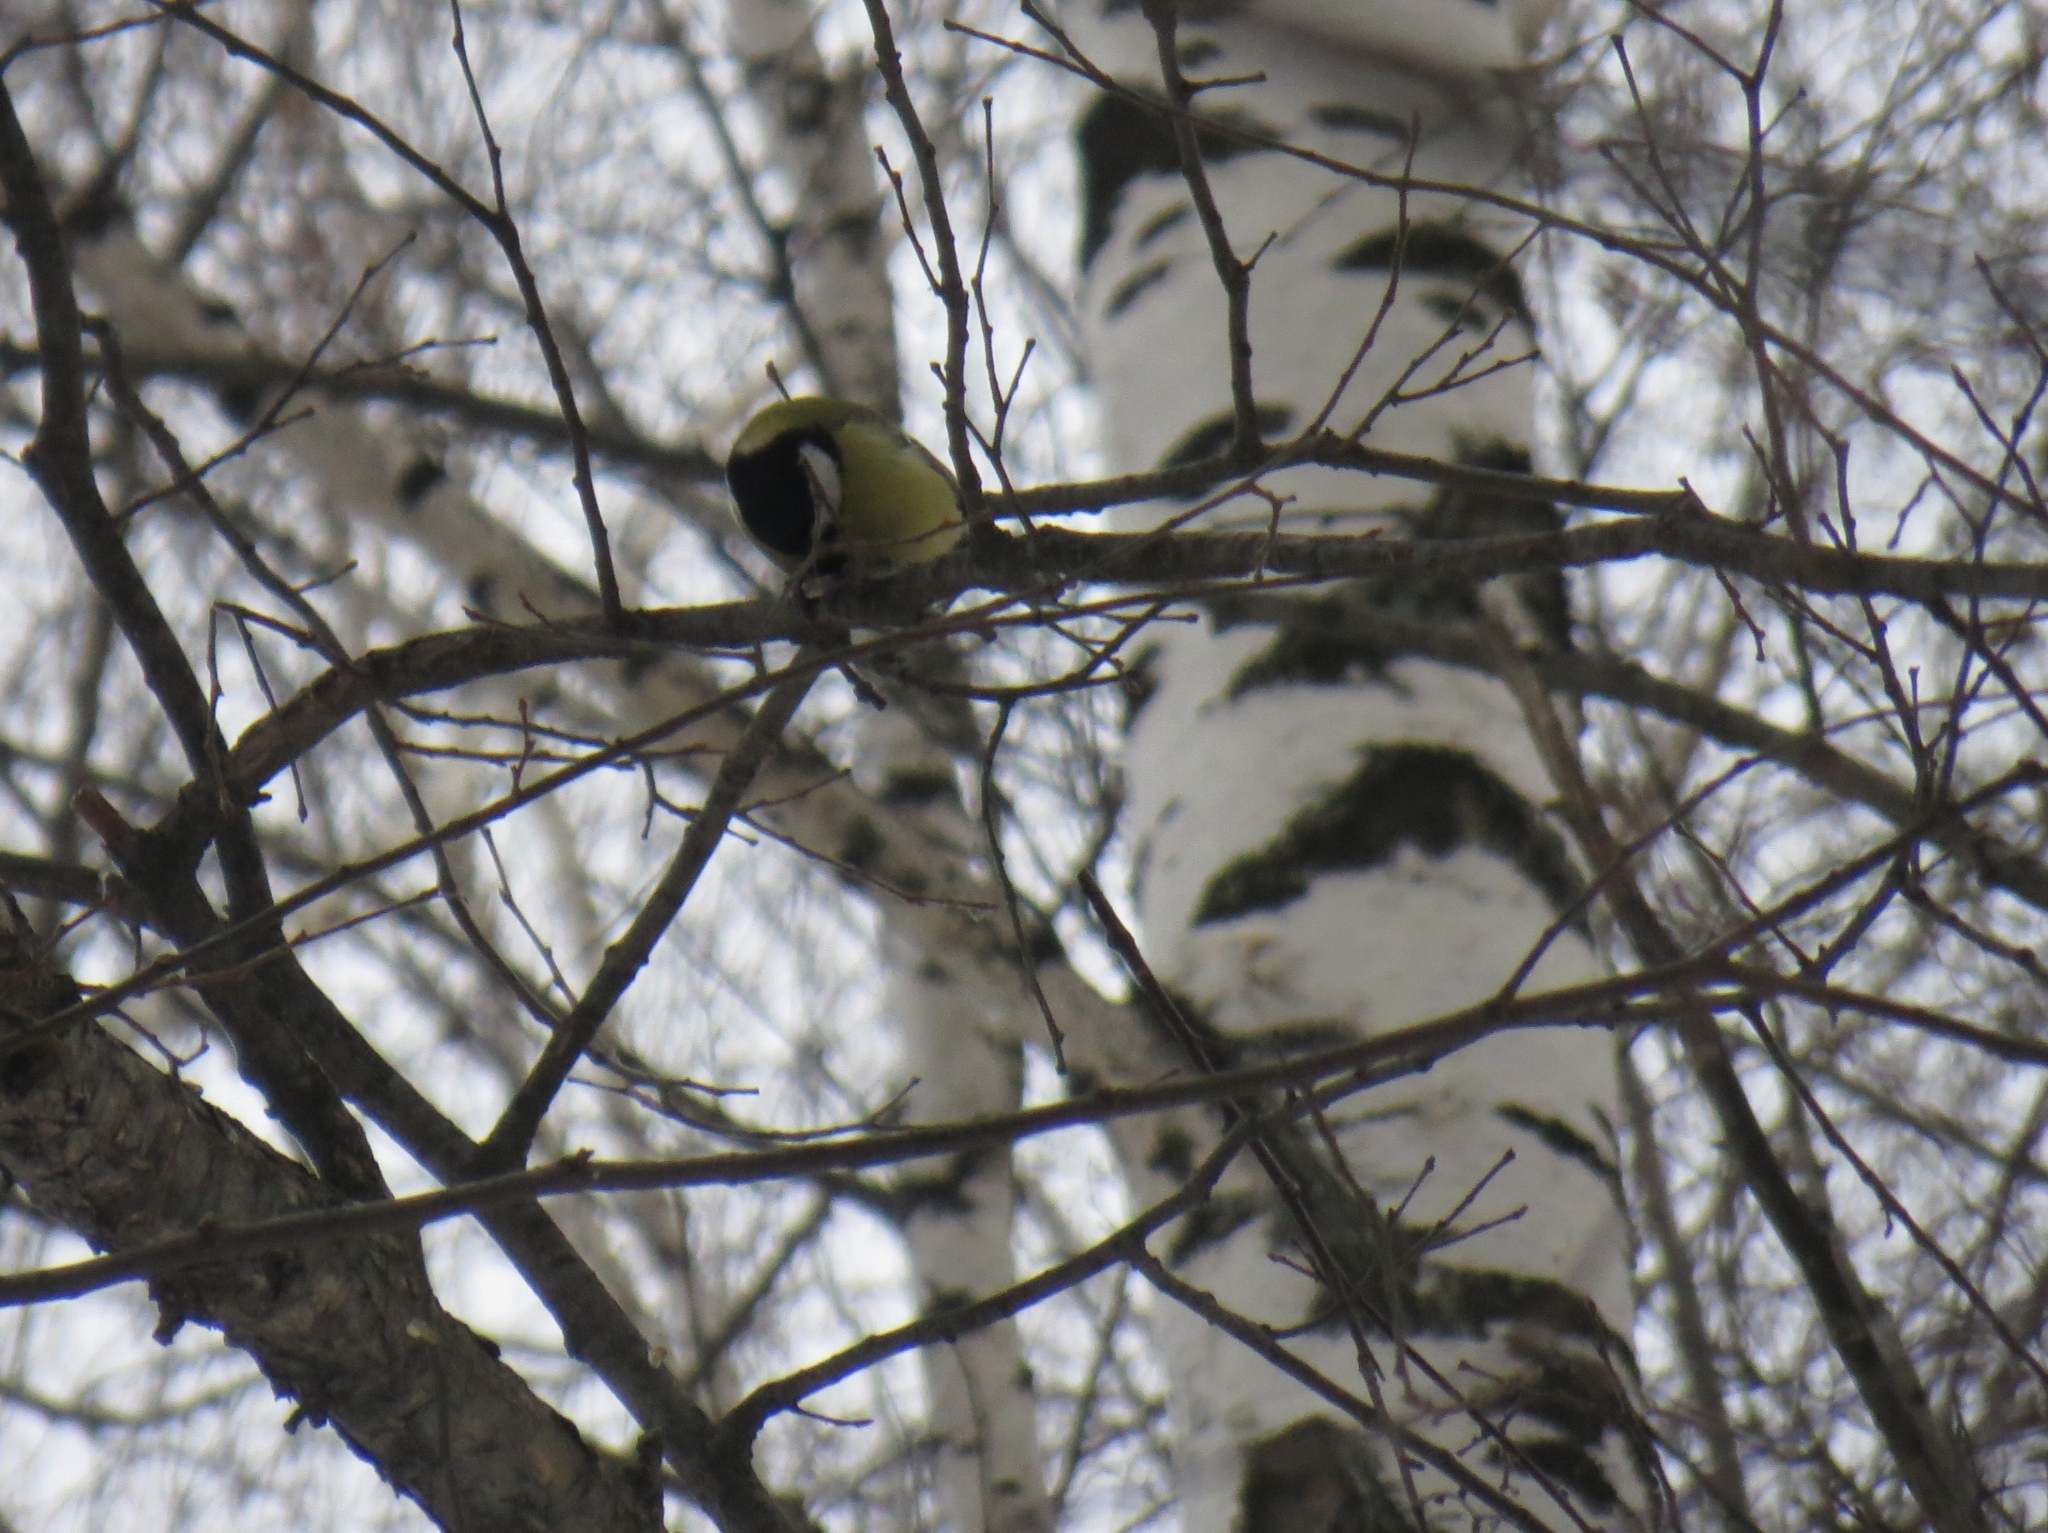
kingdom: Animalia
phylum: Chordata
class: Aves
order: Passeriformes
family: Paridae
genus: Parus
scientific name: Parus major
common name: Great tit
